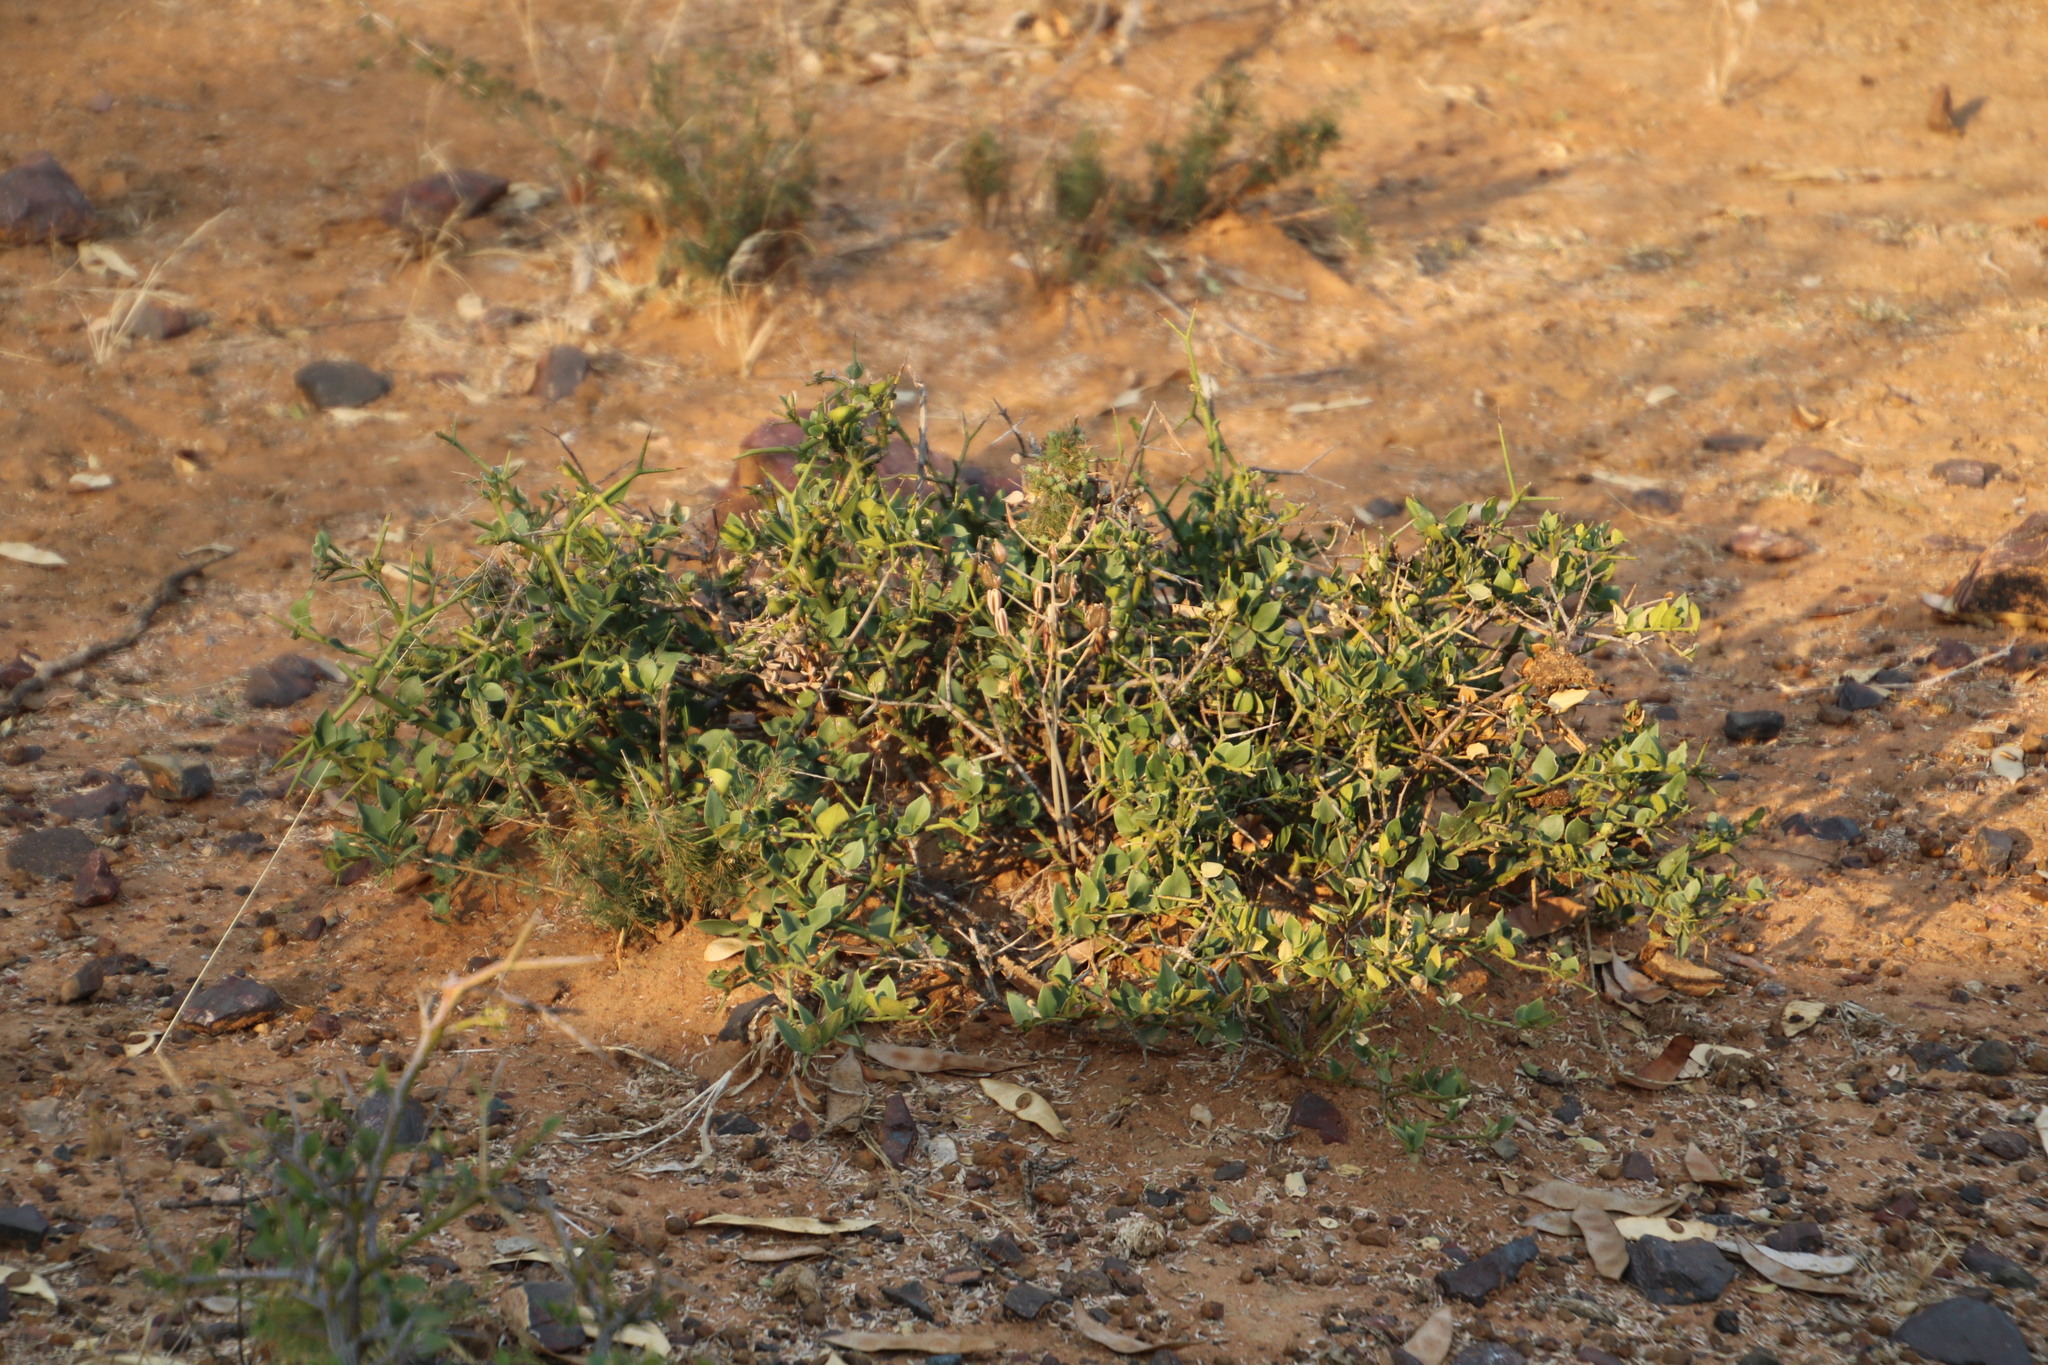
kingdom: Plantae
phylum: Tracheophyta
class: Magnoliopsida
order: Gentianales
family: Apocynaceae
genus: Carissa
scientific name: Carissa bispinosa
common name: Forest num-num
